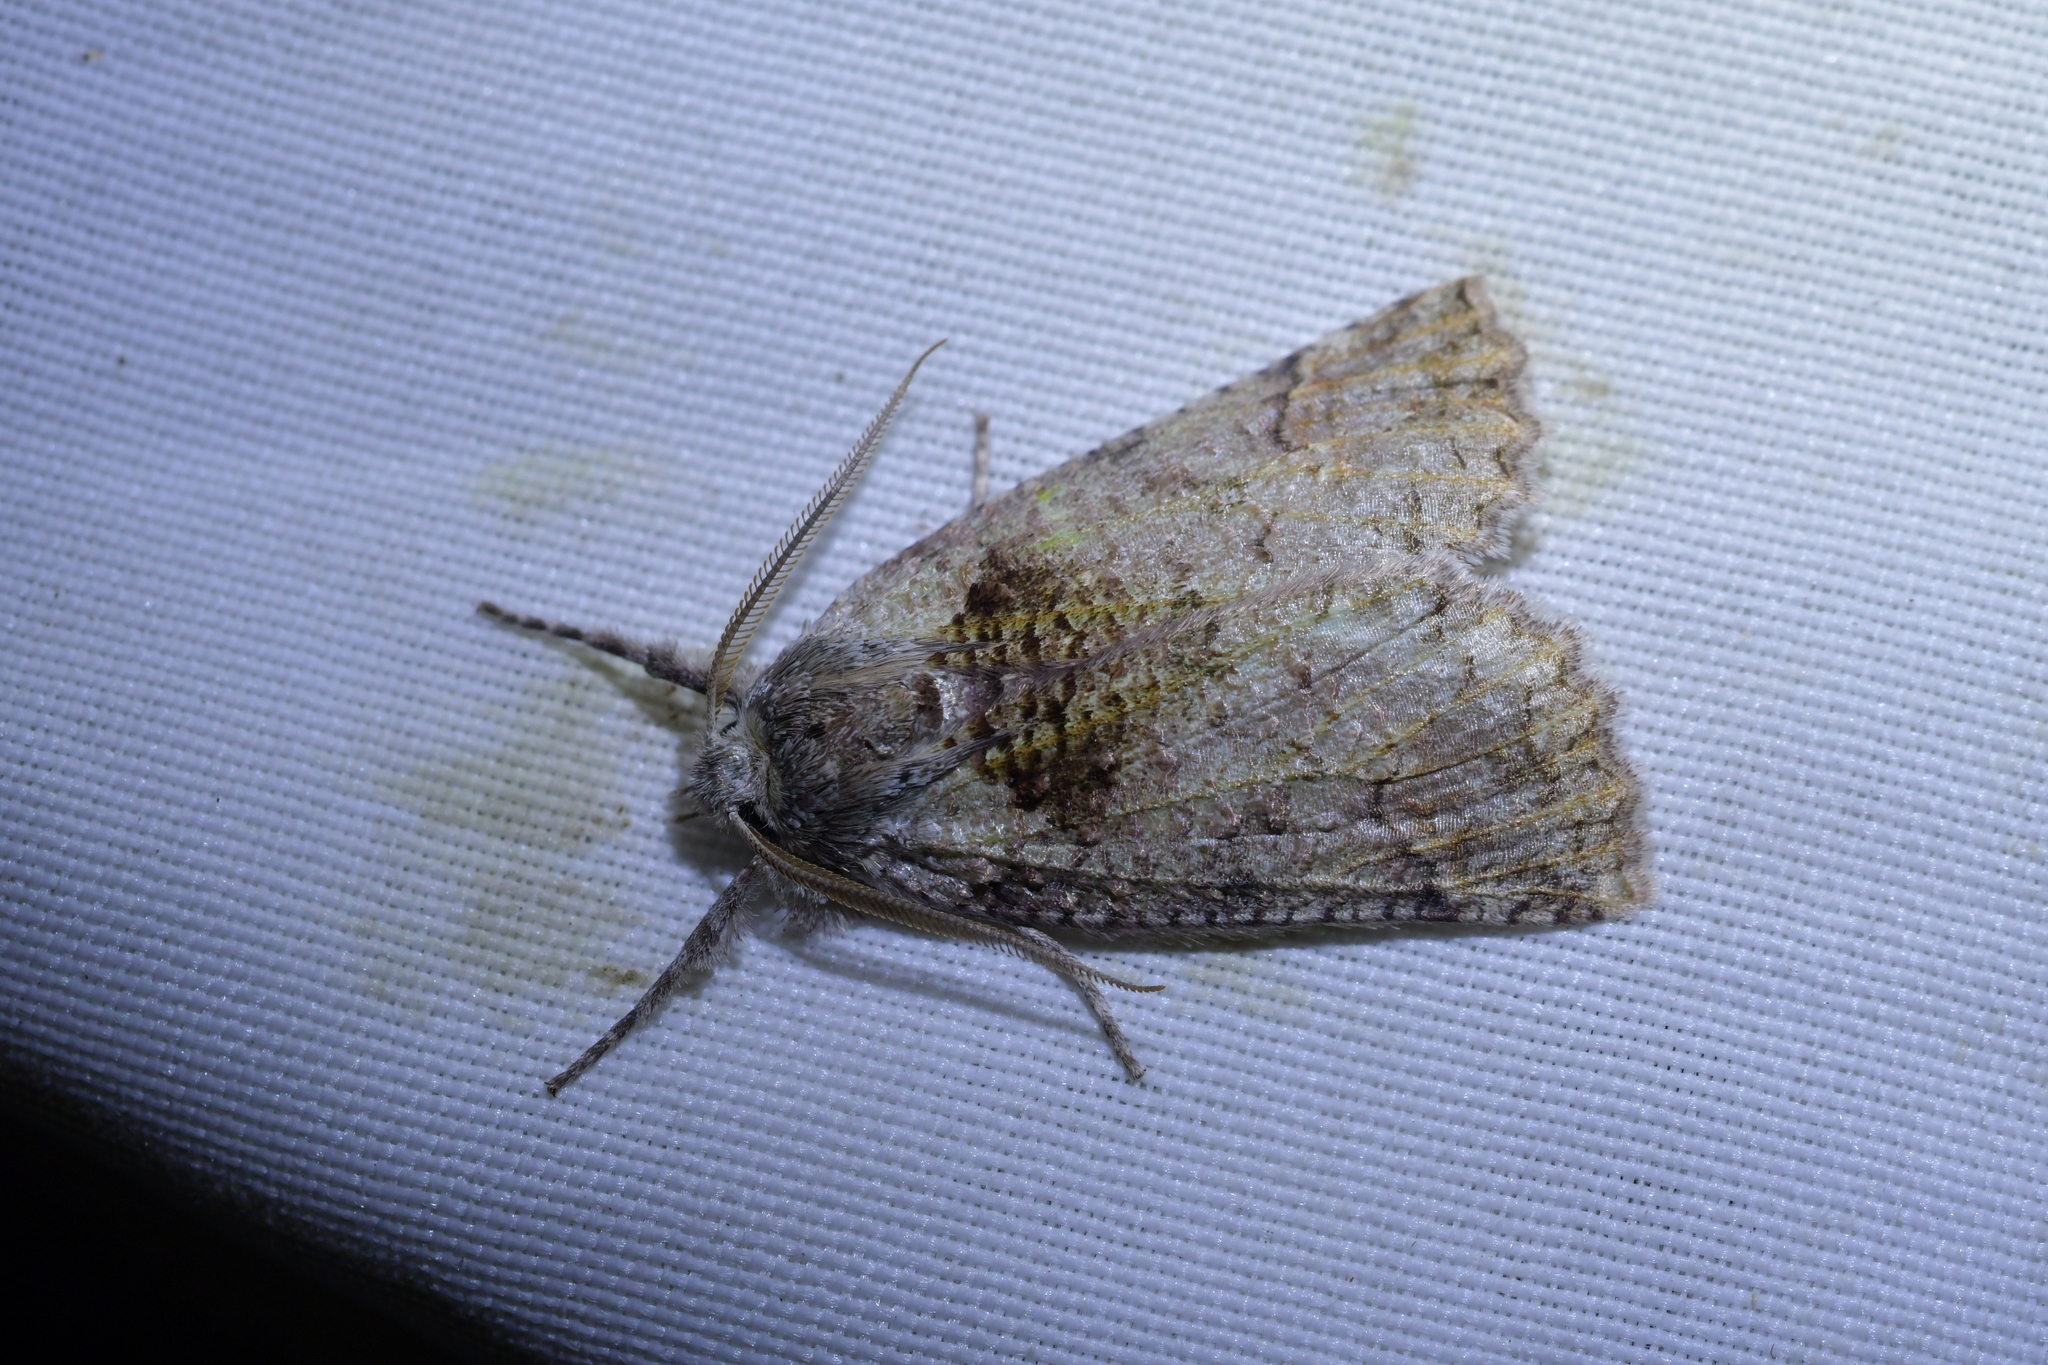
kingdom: Animalia
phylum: Arthropoda
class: Insecta
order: Lepidoptera
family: Geometridae
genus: Declana
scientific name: Declana floccosa
